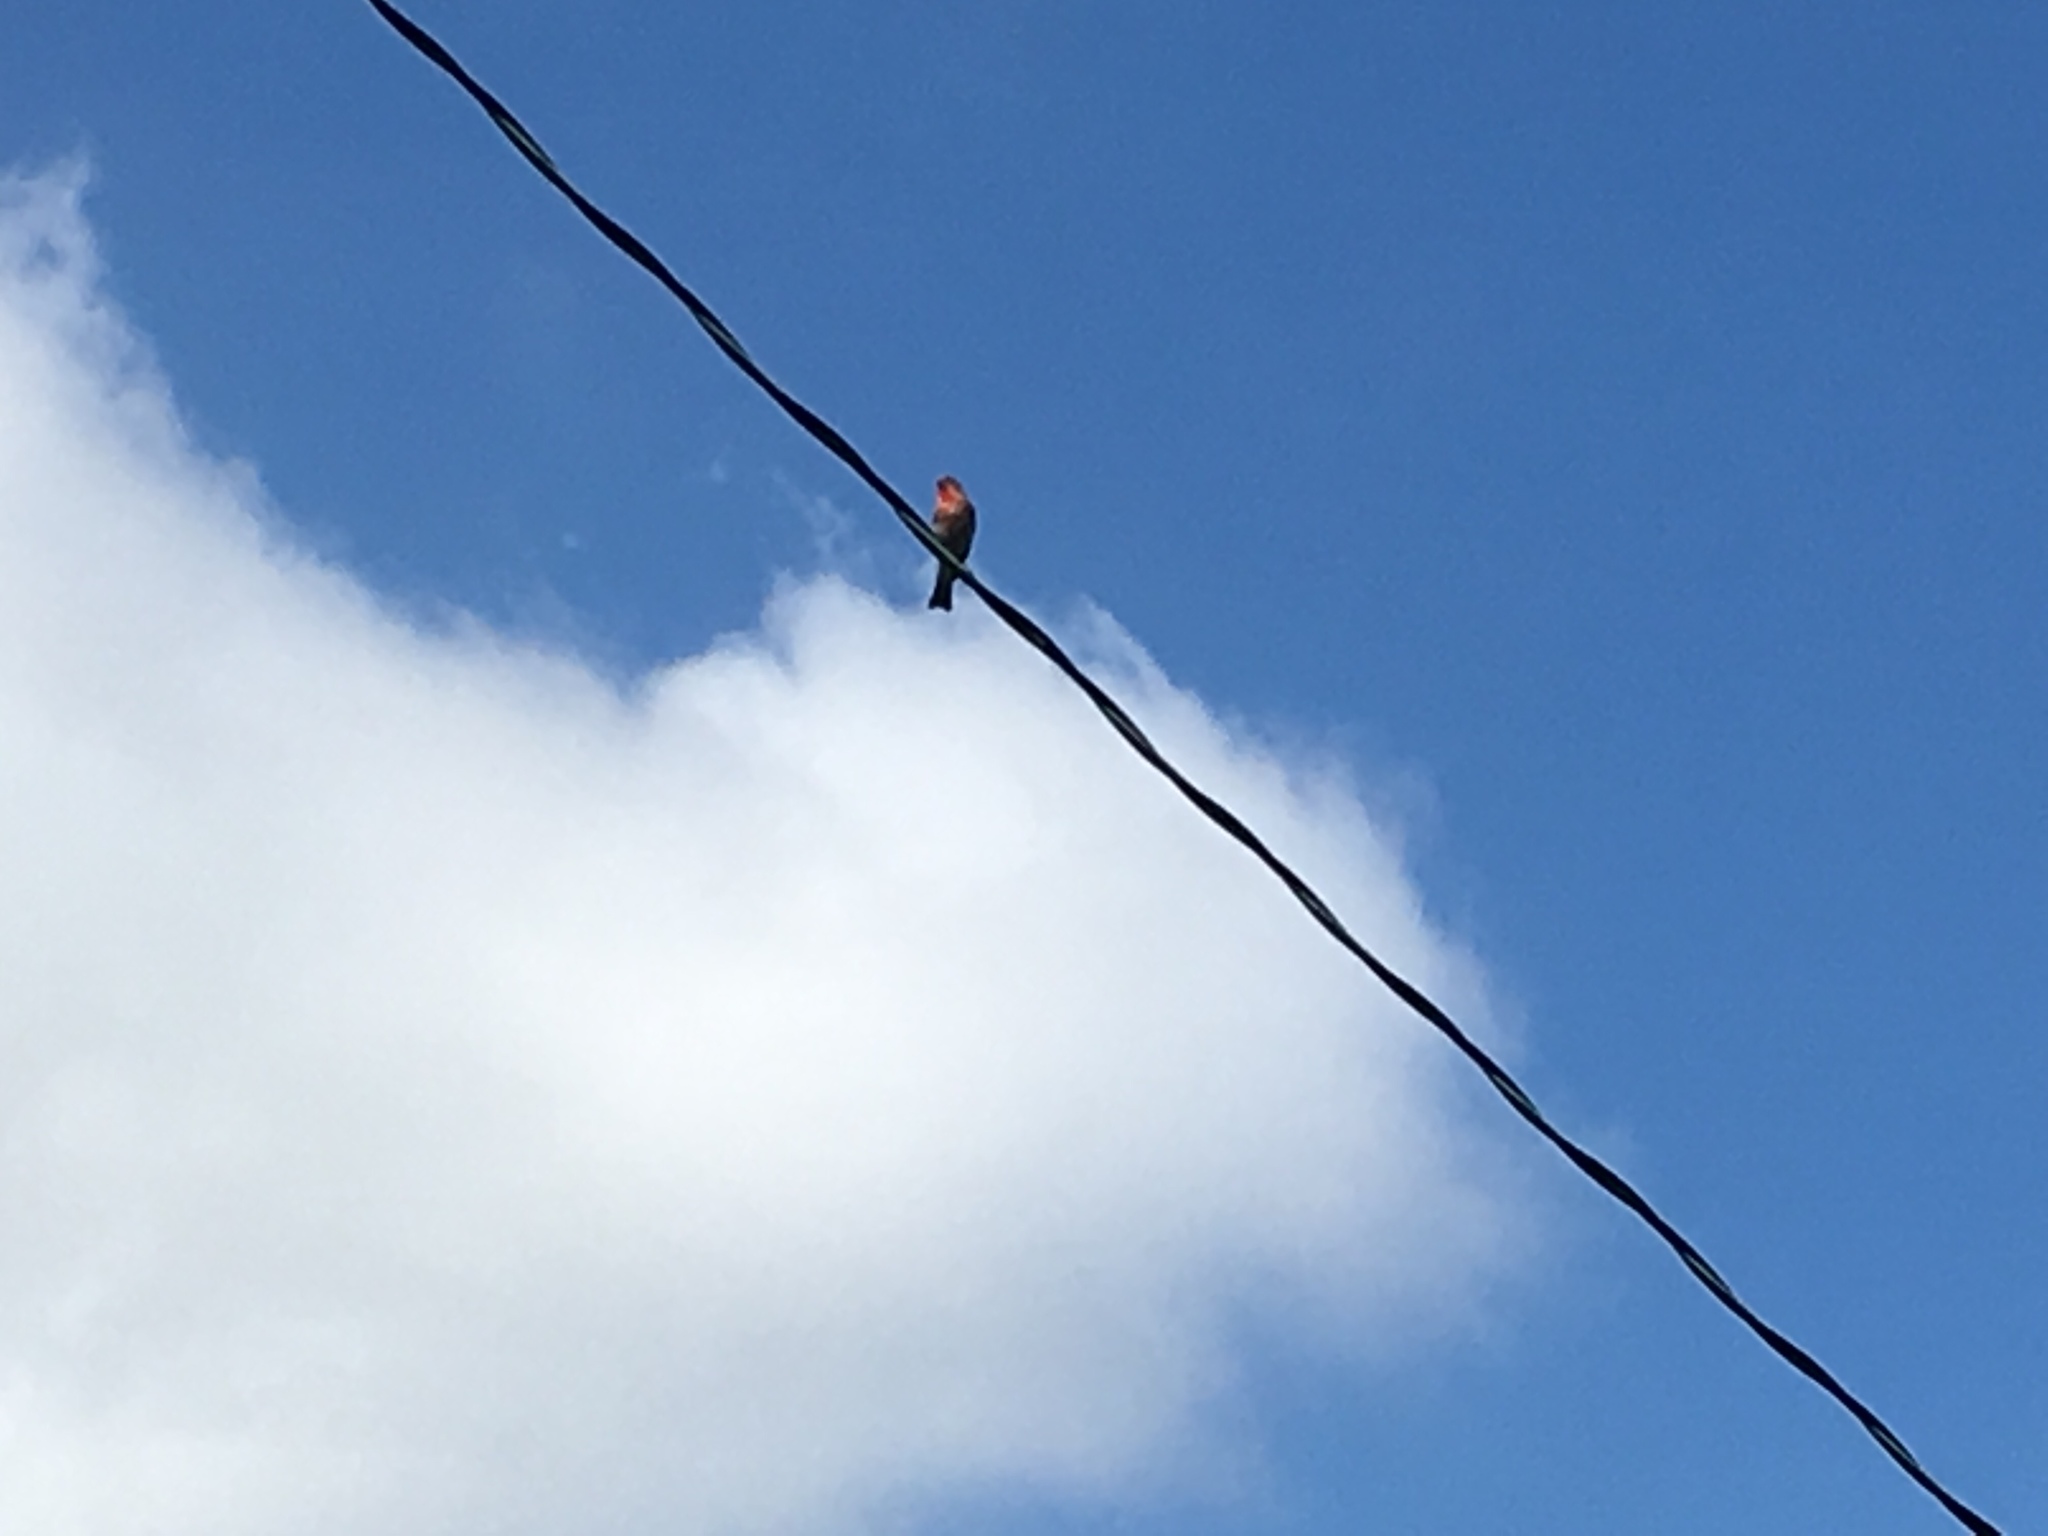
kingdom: Animalia
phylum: Chordata
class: Aves
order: Passeriformes
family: Fringillidae
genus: Haemorhous
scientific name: Haemorhous mexicanus
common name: House finch
